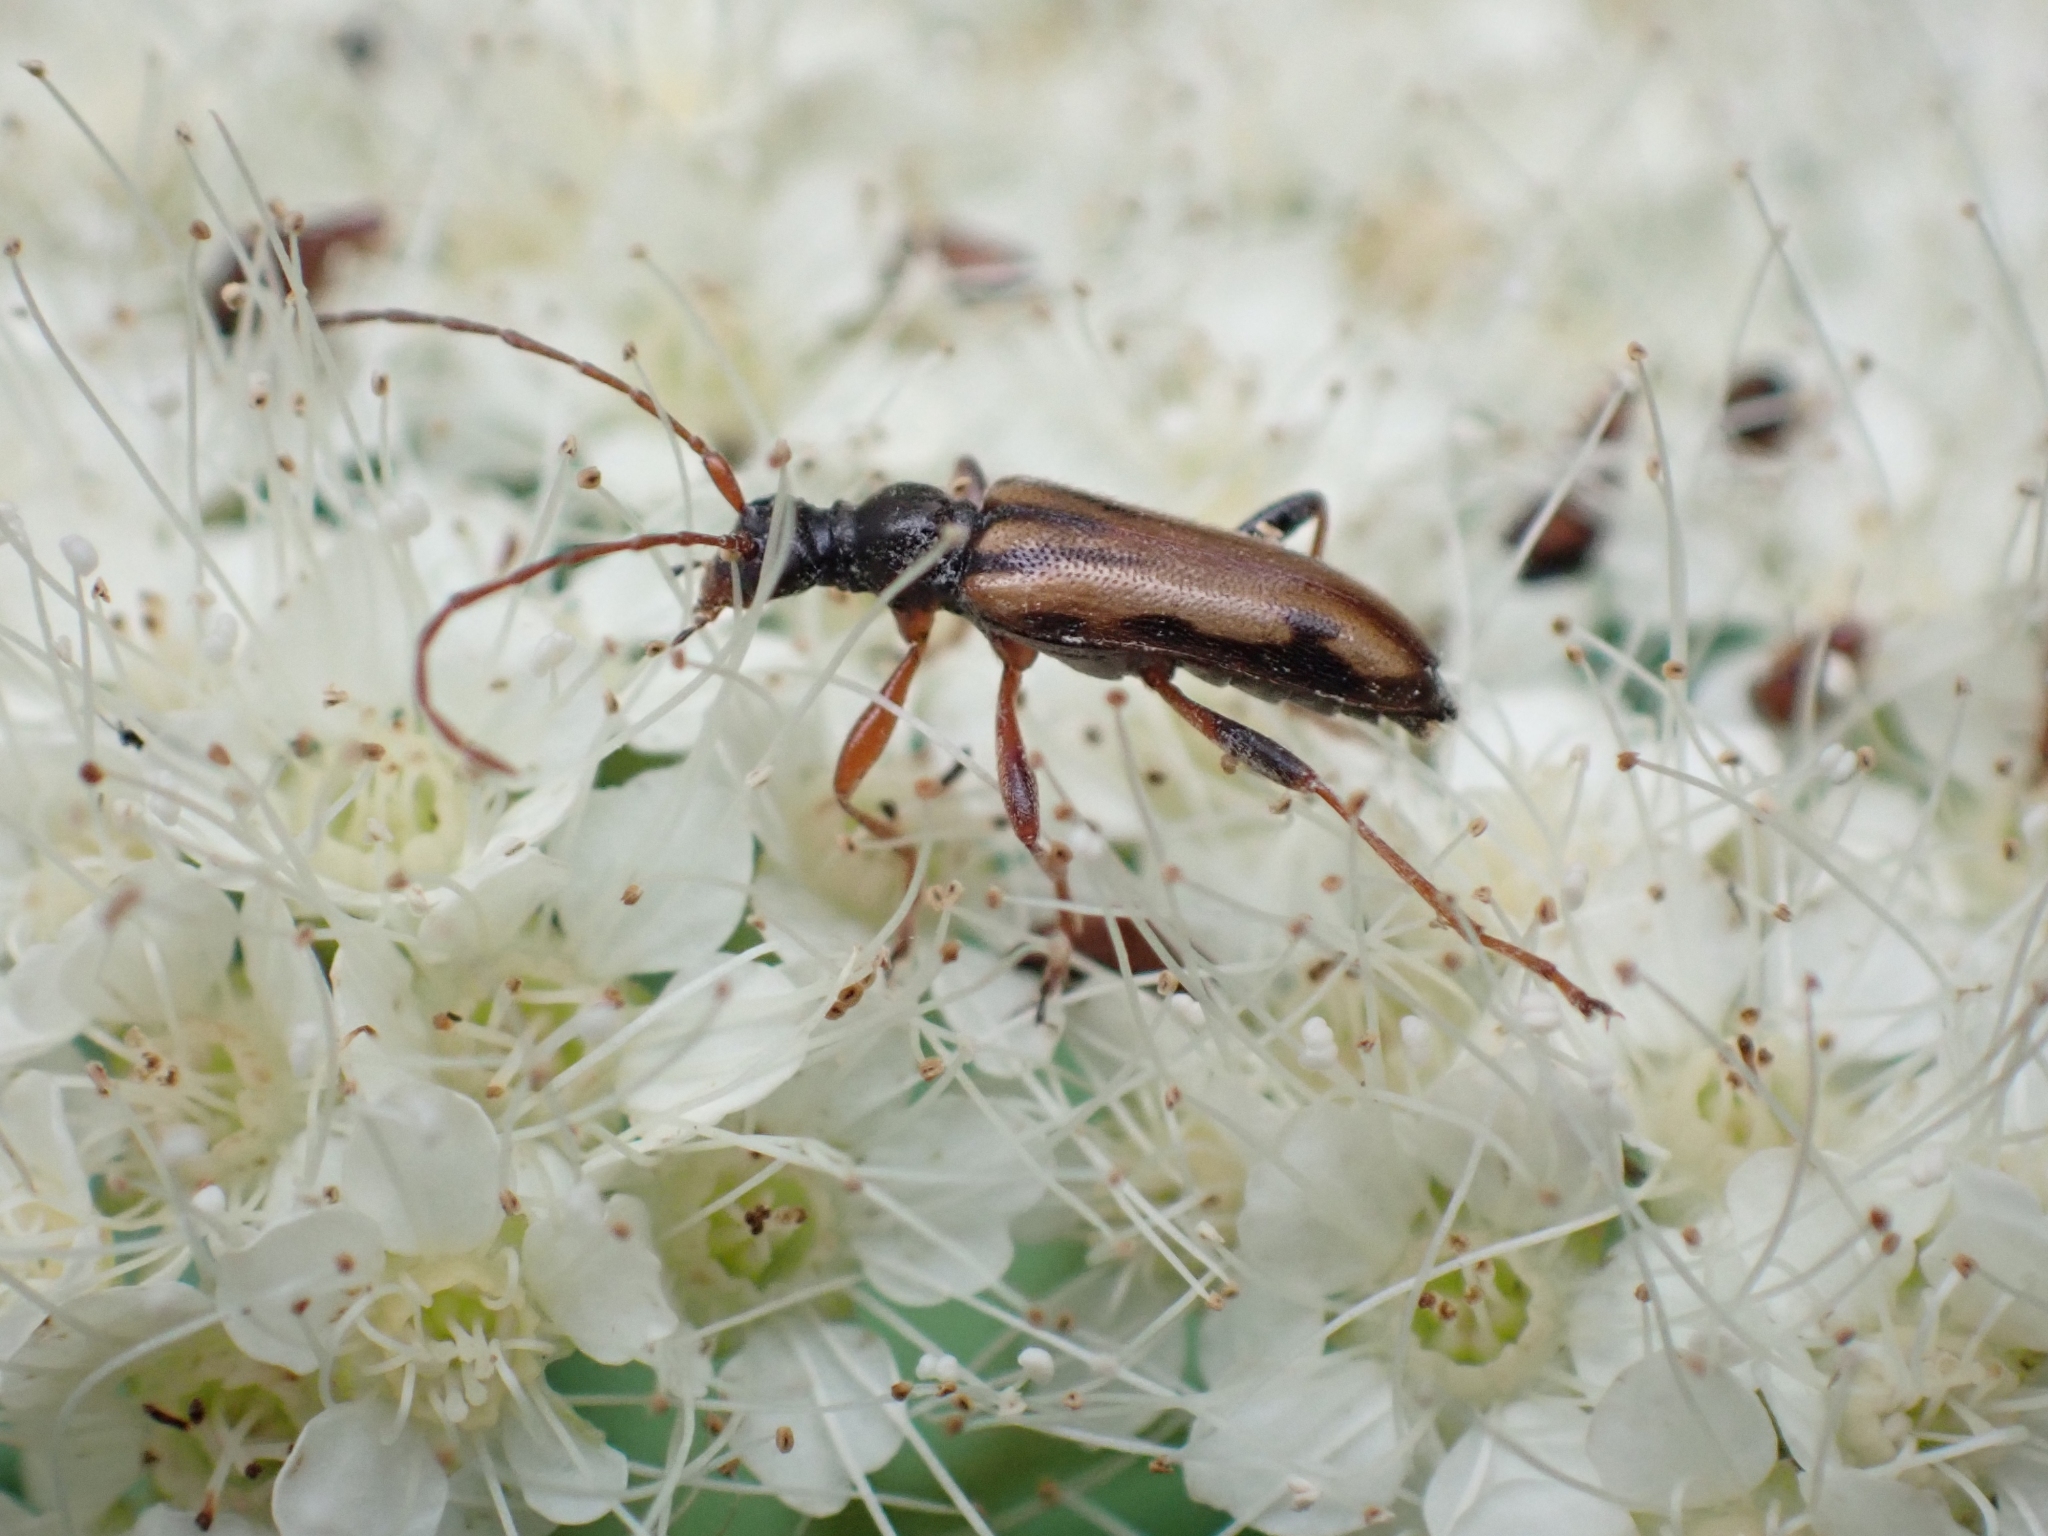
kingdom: Animalia
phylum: Arthropoda
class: Insecta
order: Coleoptera
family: Cerambycidae
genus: Pidonia
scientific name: Pidonia scripta
